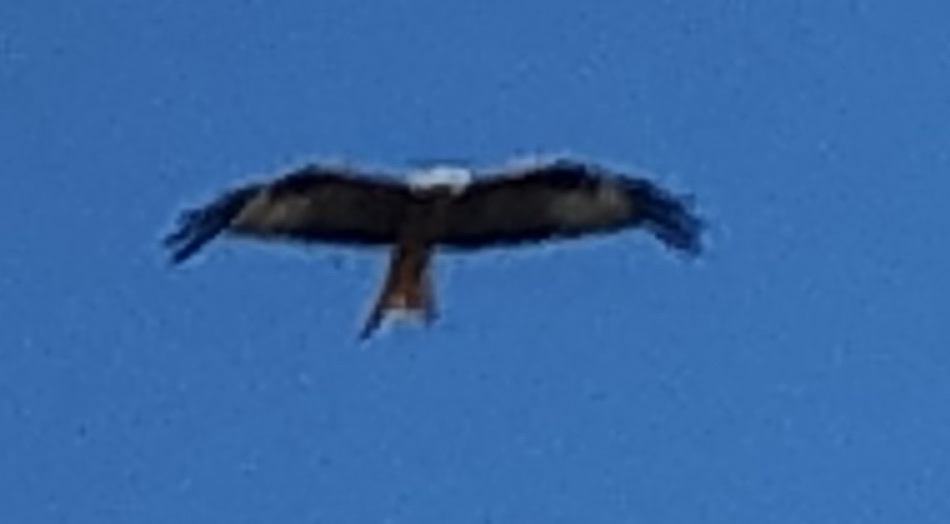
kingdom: Animalia
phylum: Chordata
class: Aves
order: Accipitriformes
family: Accipitridae
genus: Milvus
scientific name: Milvus milvus
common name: Red kite
